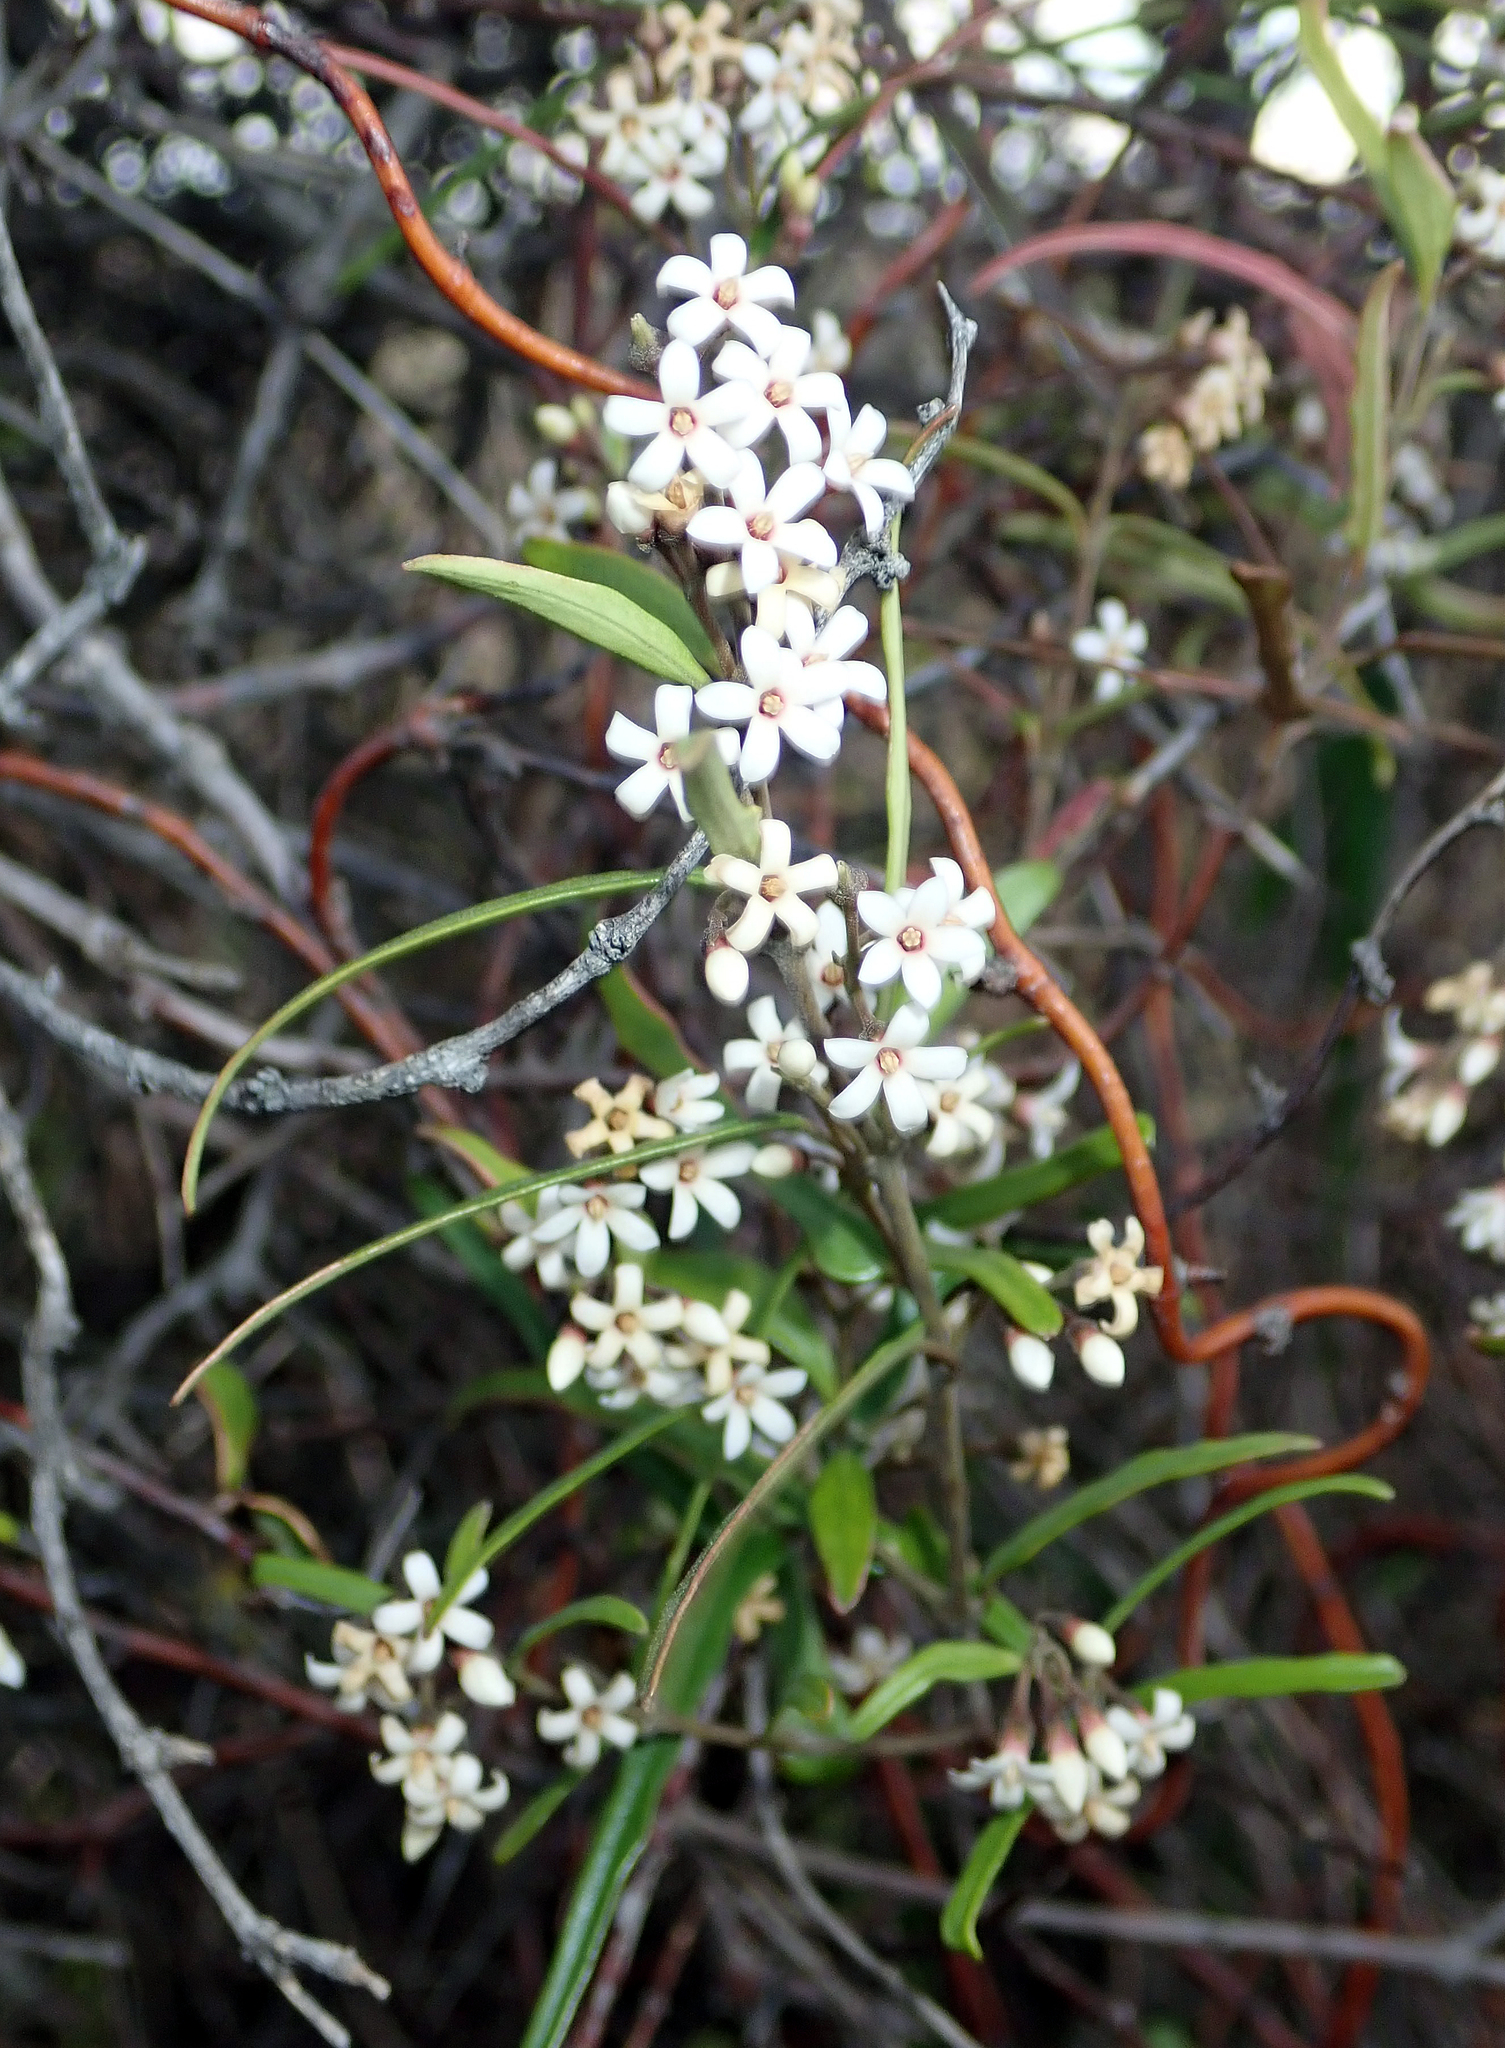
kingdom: Plantae
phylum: Tracheophyta
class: Magnoliopsida
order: Gentianales
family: Apocynaceae
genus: Parsonsia
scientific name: Parsonsia capsularis
